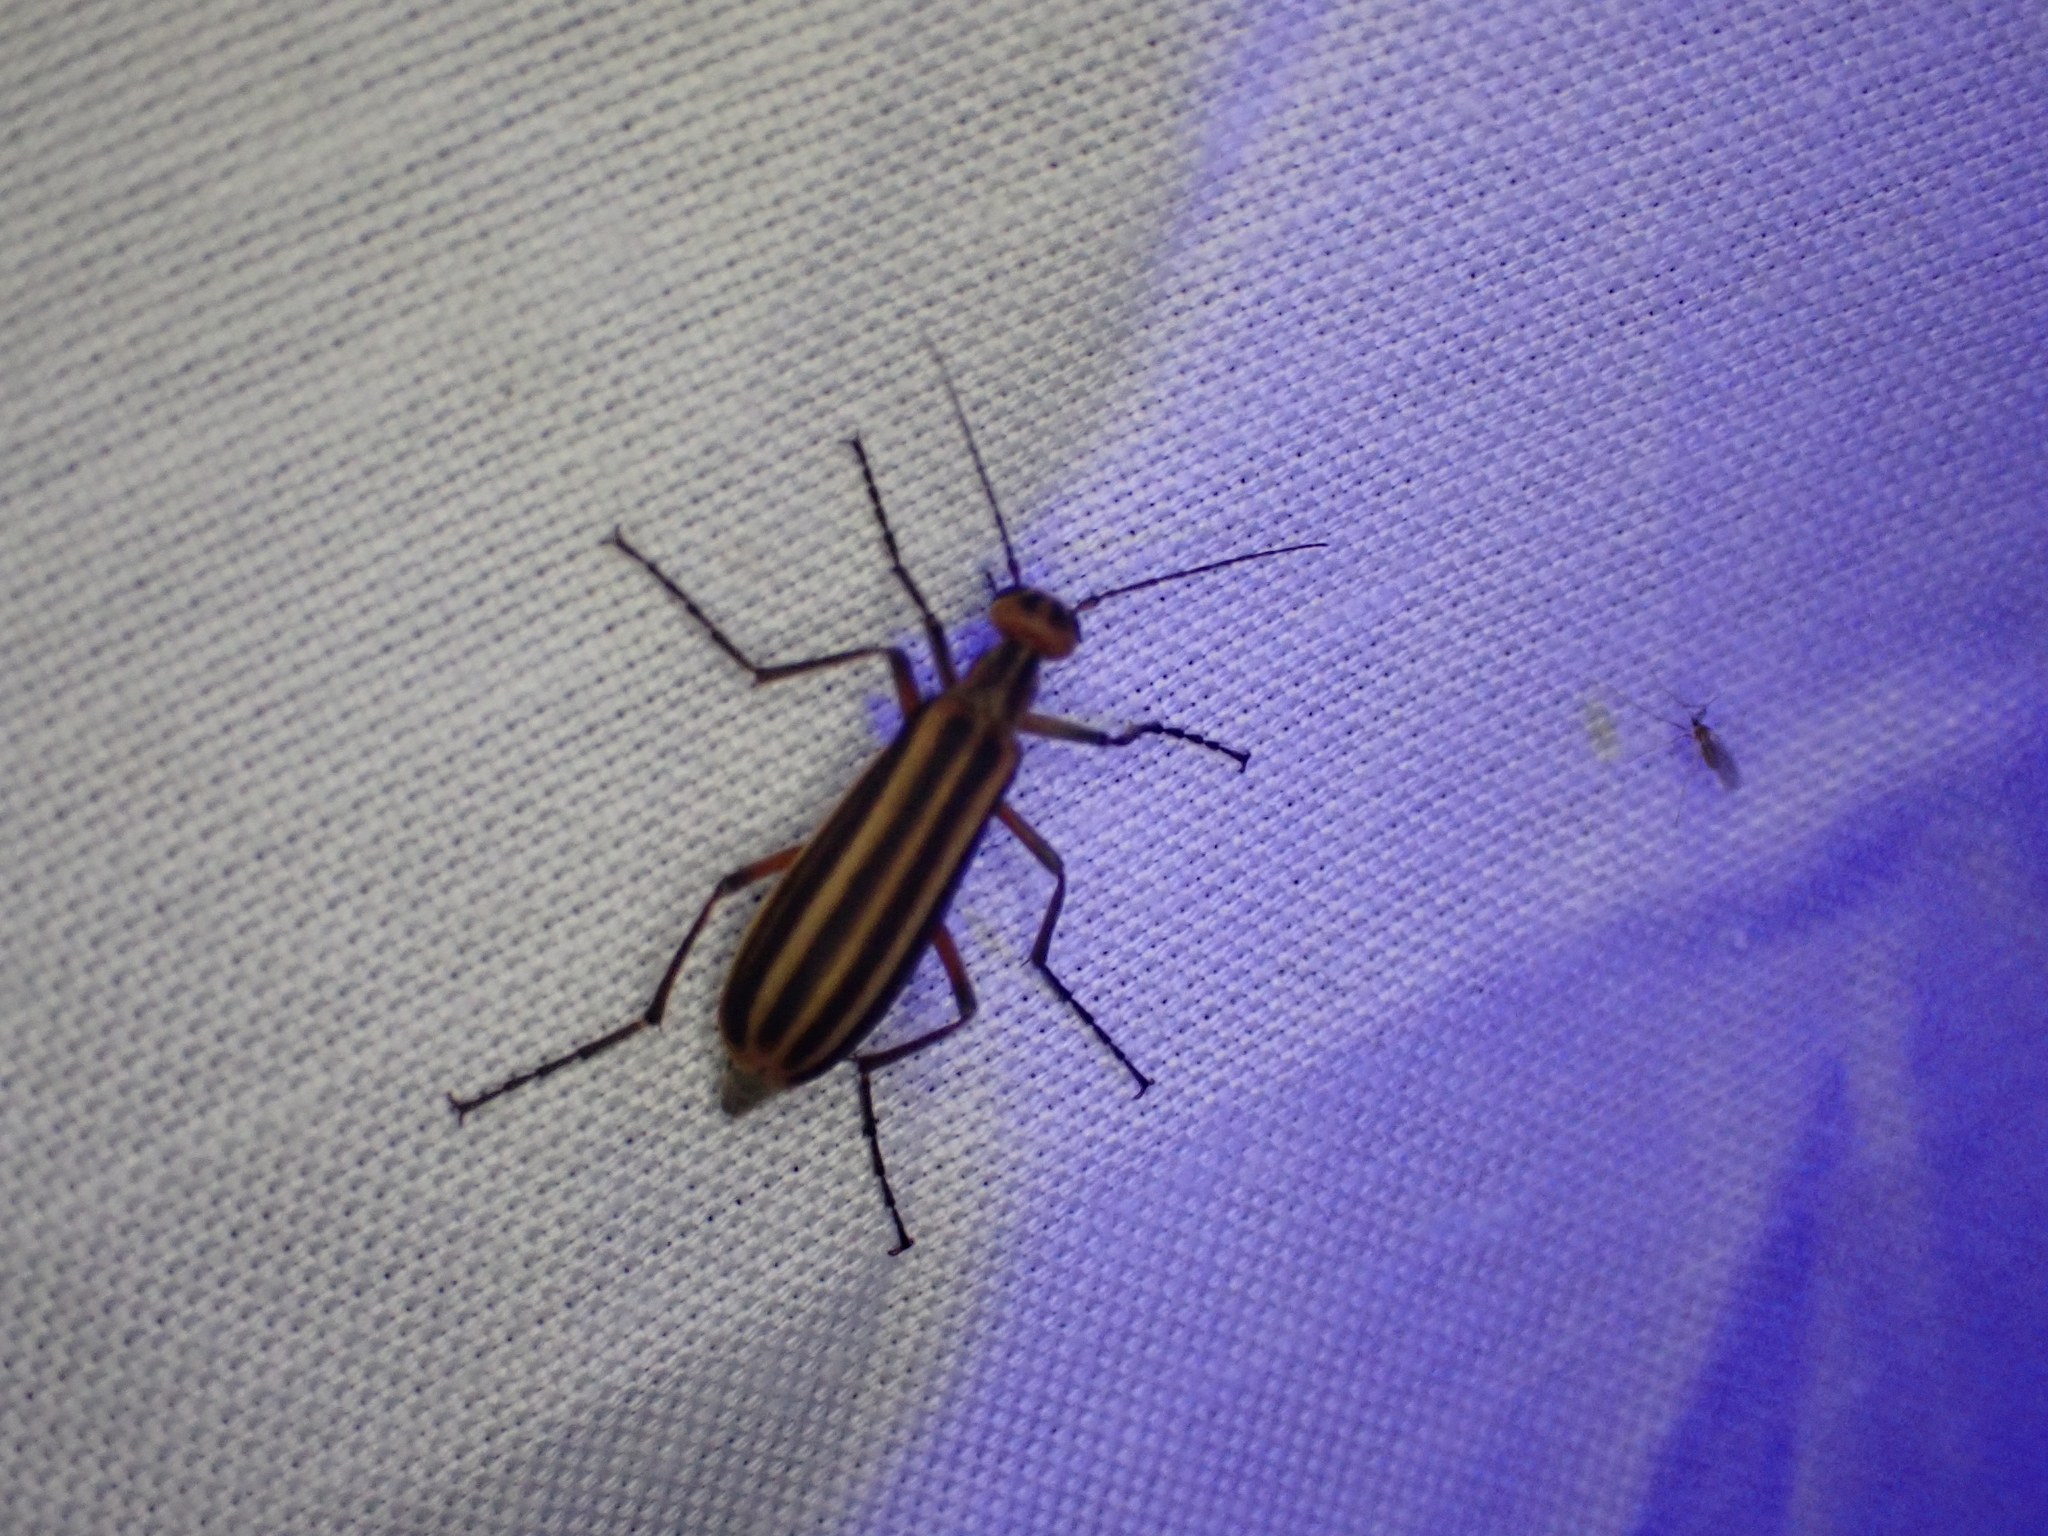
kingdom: Animalia
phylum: Arthropoda
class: Insecta
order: Coleoptera
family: Meloidae
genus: Epicauta
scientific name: Epicauta vittata
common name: Old-fashioned potato beetle
